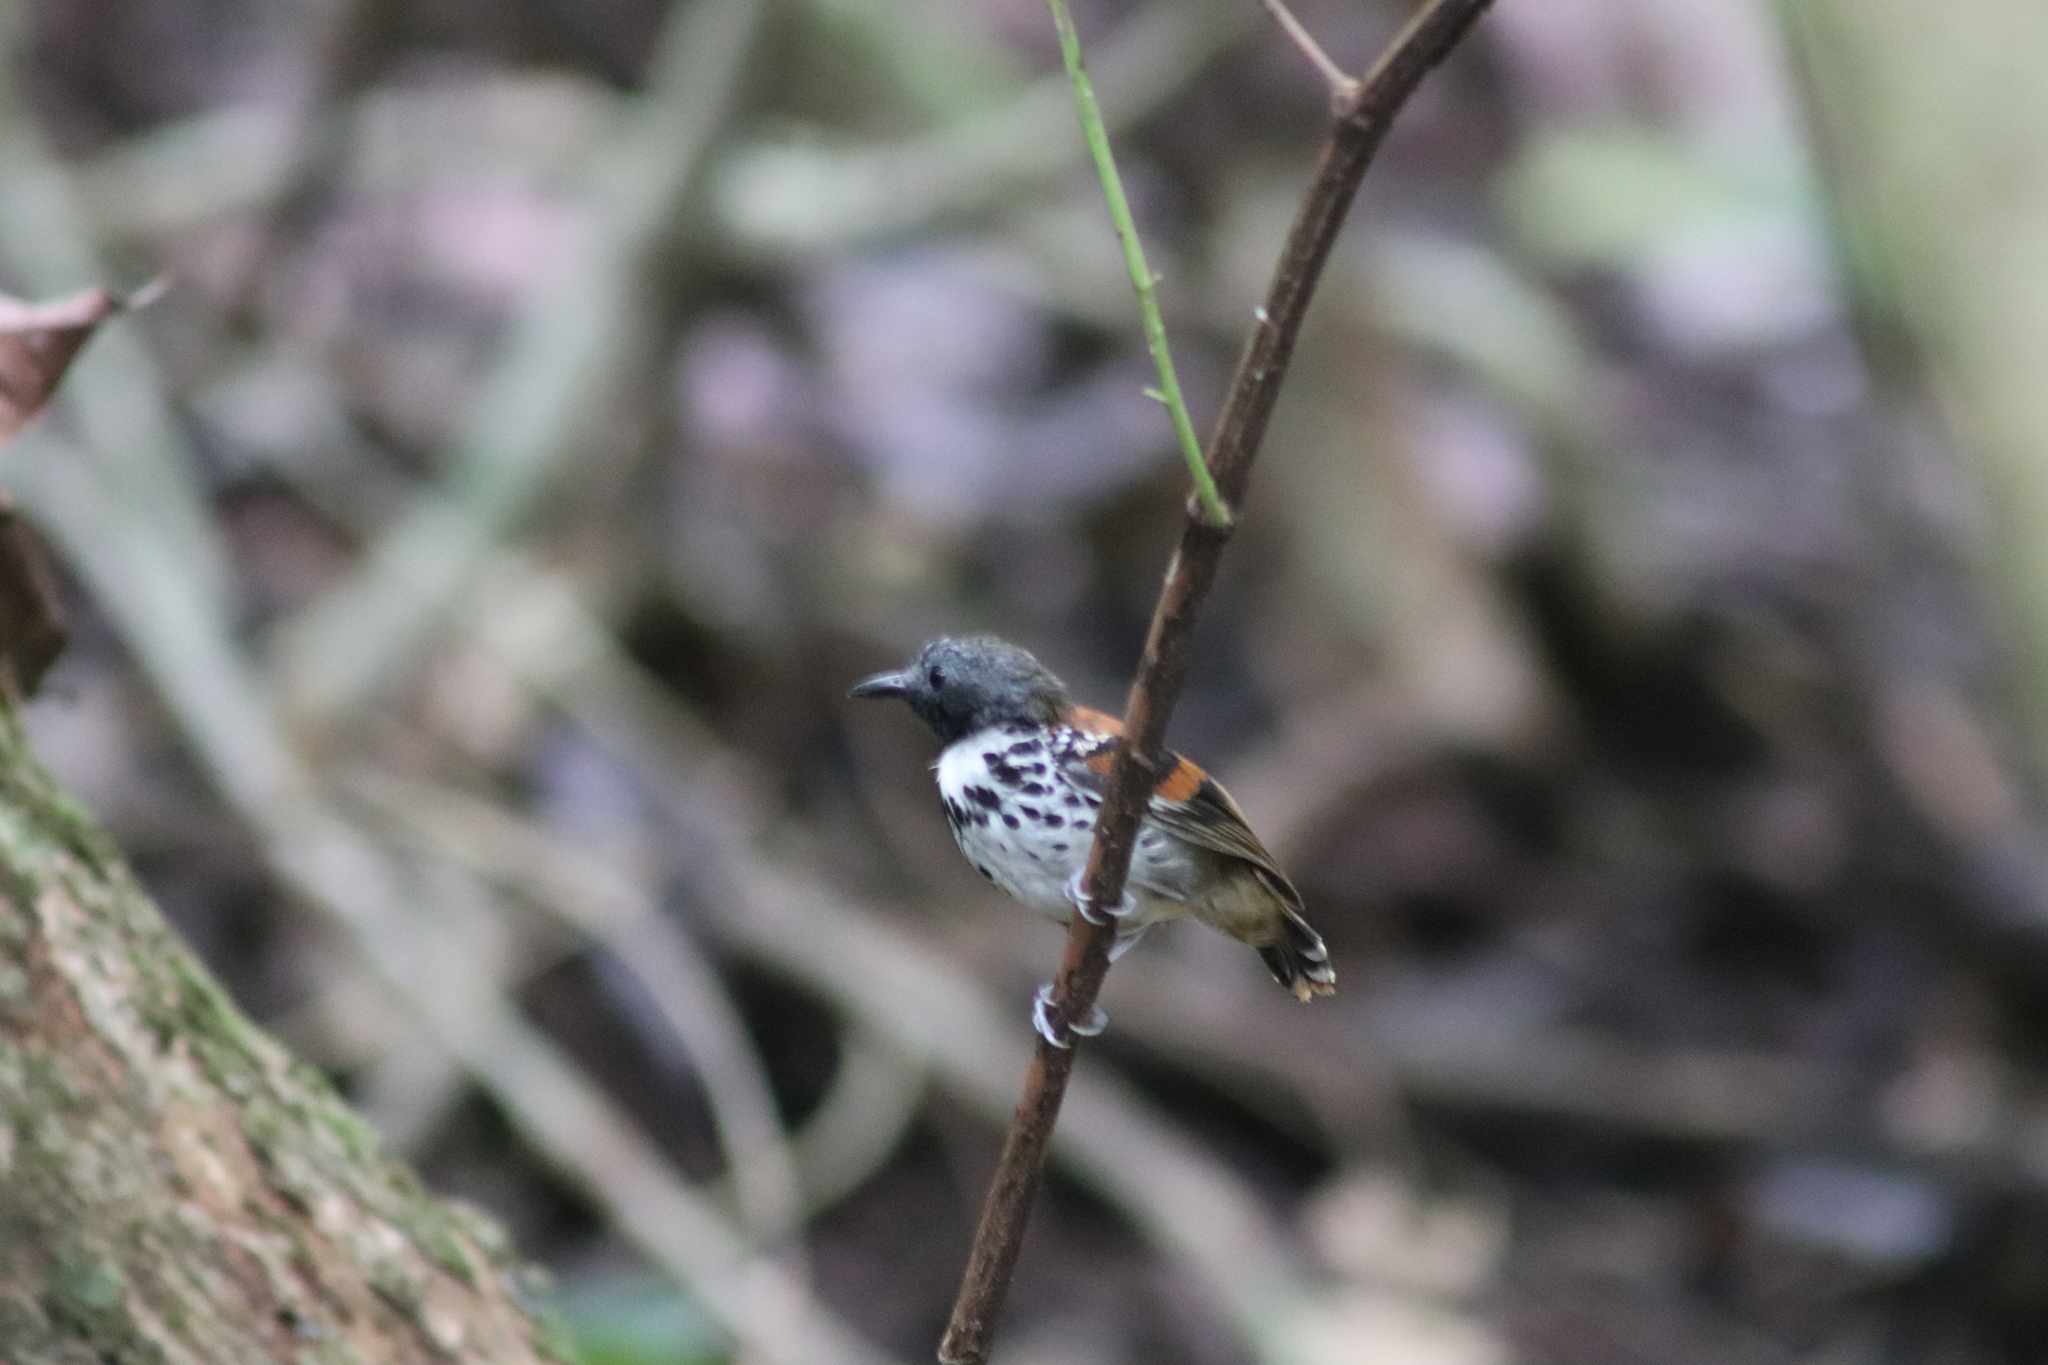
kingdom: Animalia
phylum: Chordata
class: Aves
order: Passeriformes
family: Thamnophilidae
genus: Hylophylax
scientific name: Hylophylax naevioides
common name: Spotted antbird
